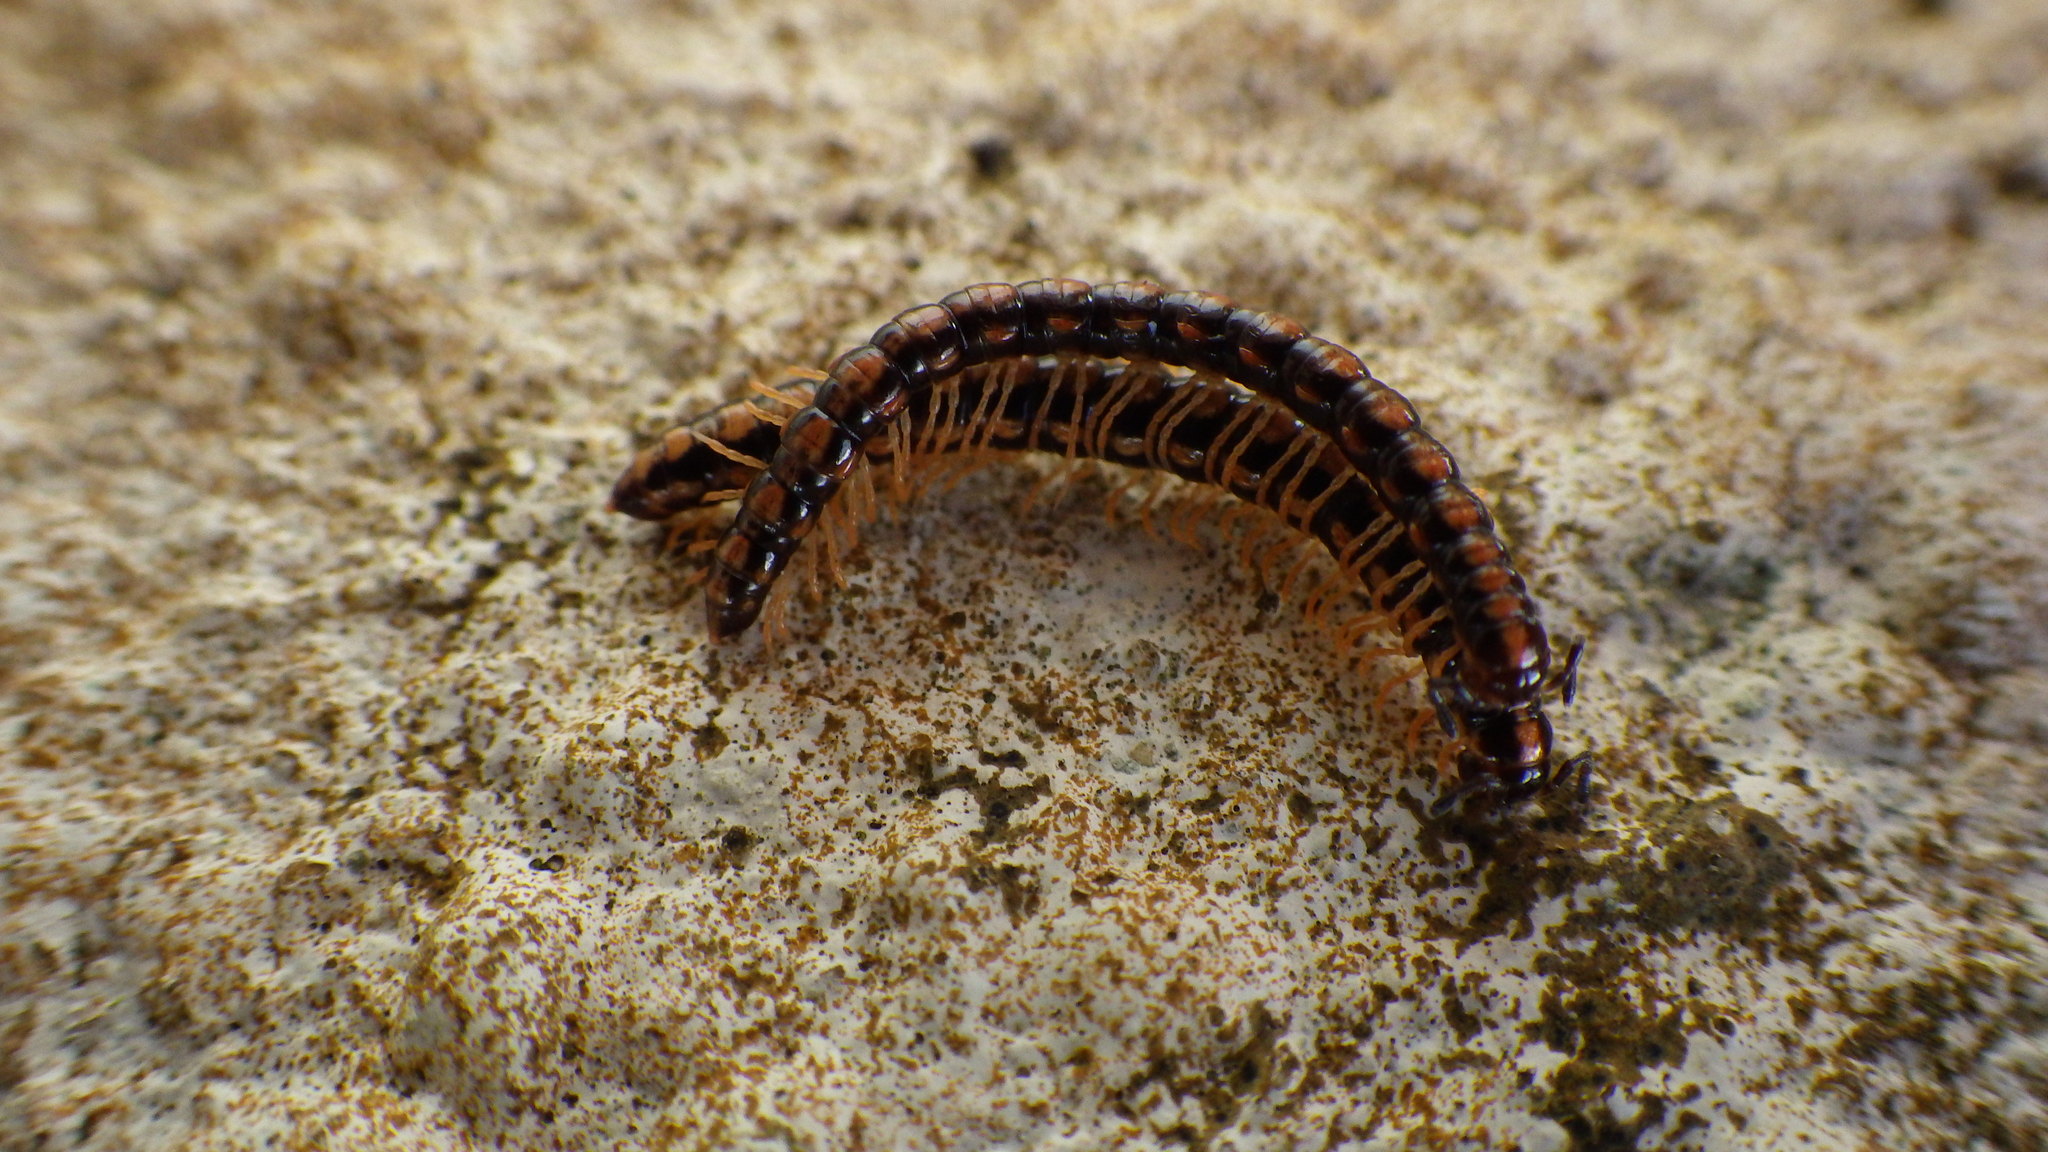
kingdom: Animalia
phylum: Arthropoda
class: Diplopoda
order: Polydesmida
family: Paradoxosomatidae
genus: Helicorthomorpha
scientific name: Helicorthomorpha holstii
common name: Millipede
